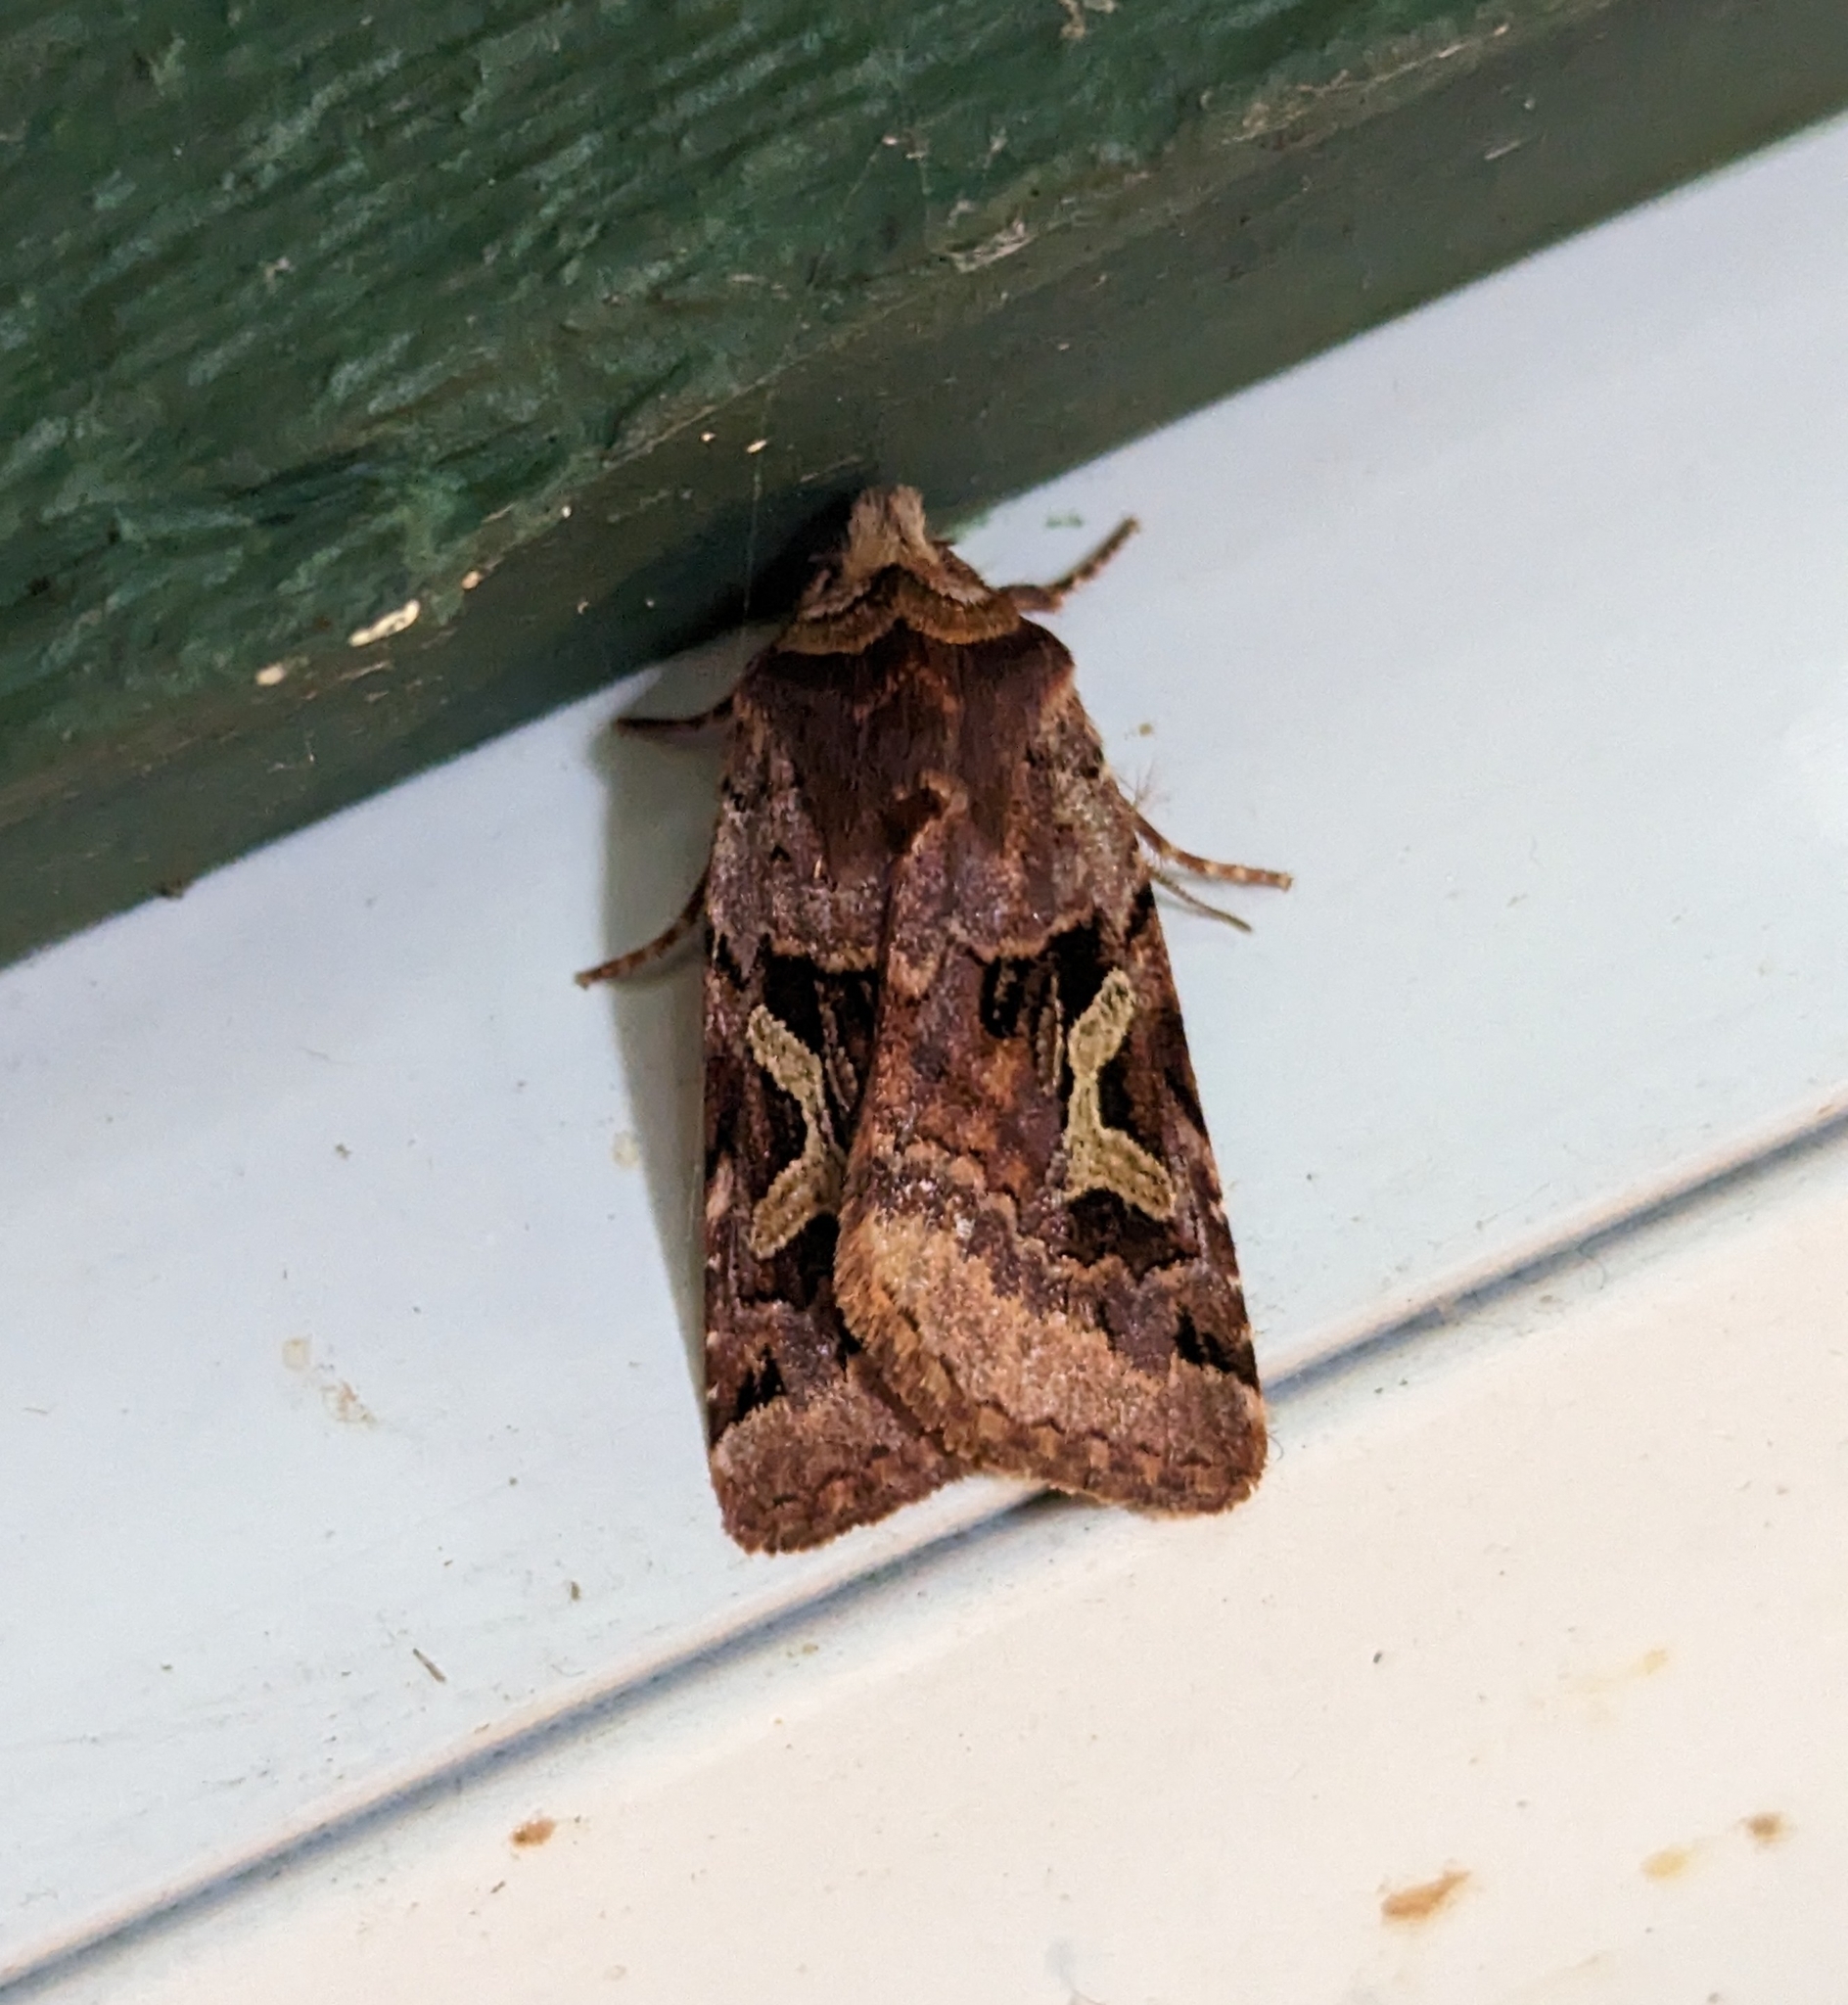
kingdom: Animalia
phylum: Arthropoda
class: Insecta
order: Lepidoptera
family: Noctuidae
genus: Cerastis
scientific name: Cerastis enigmatica
